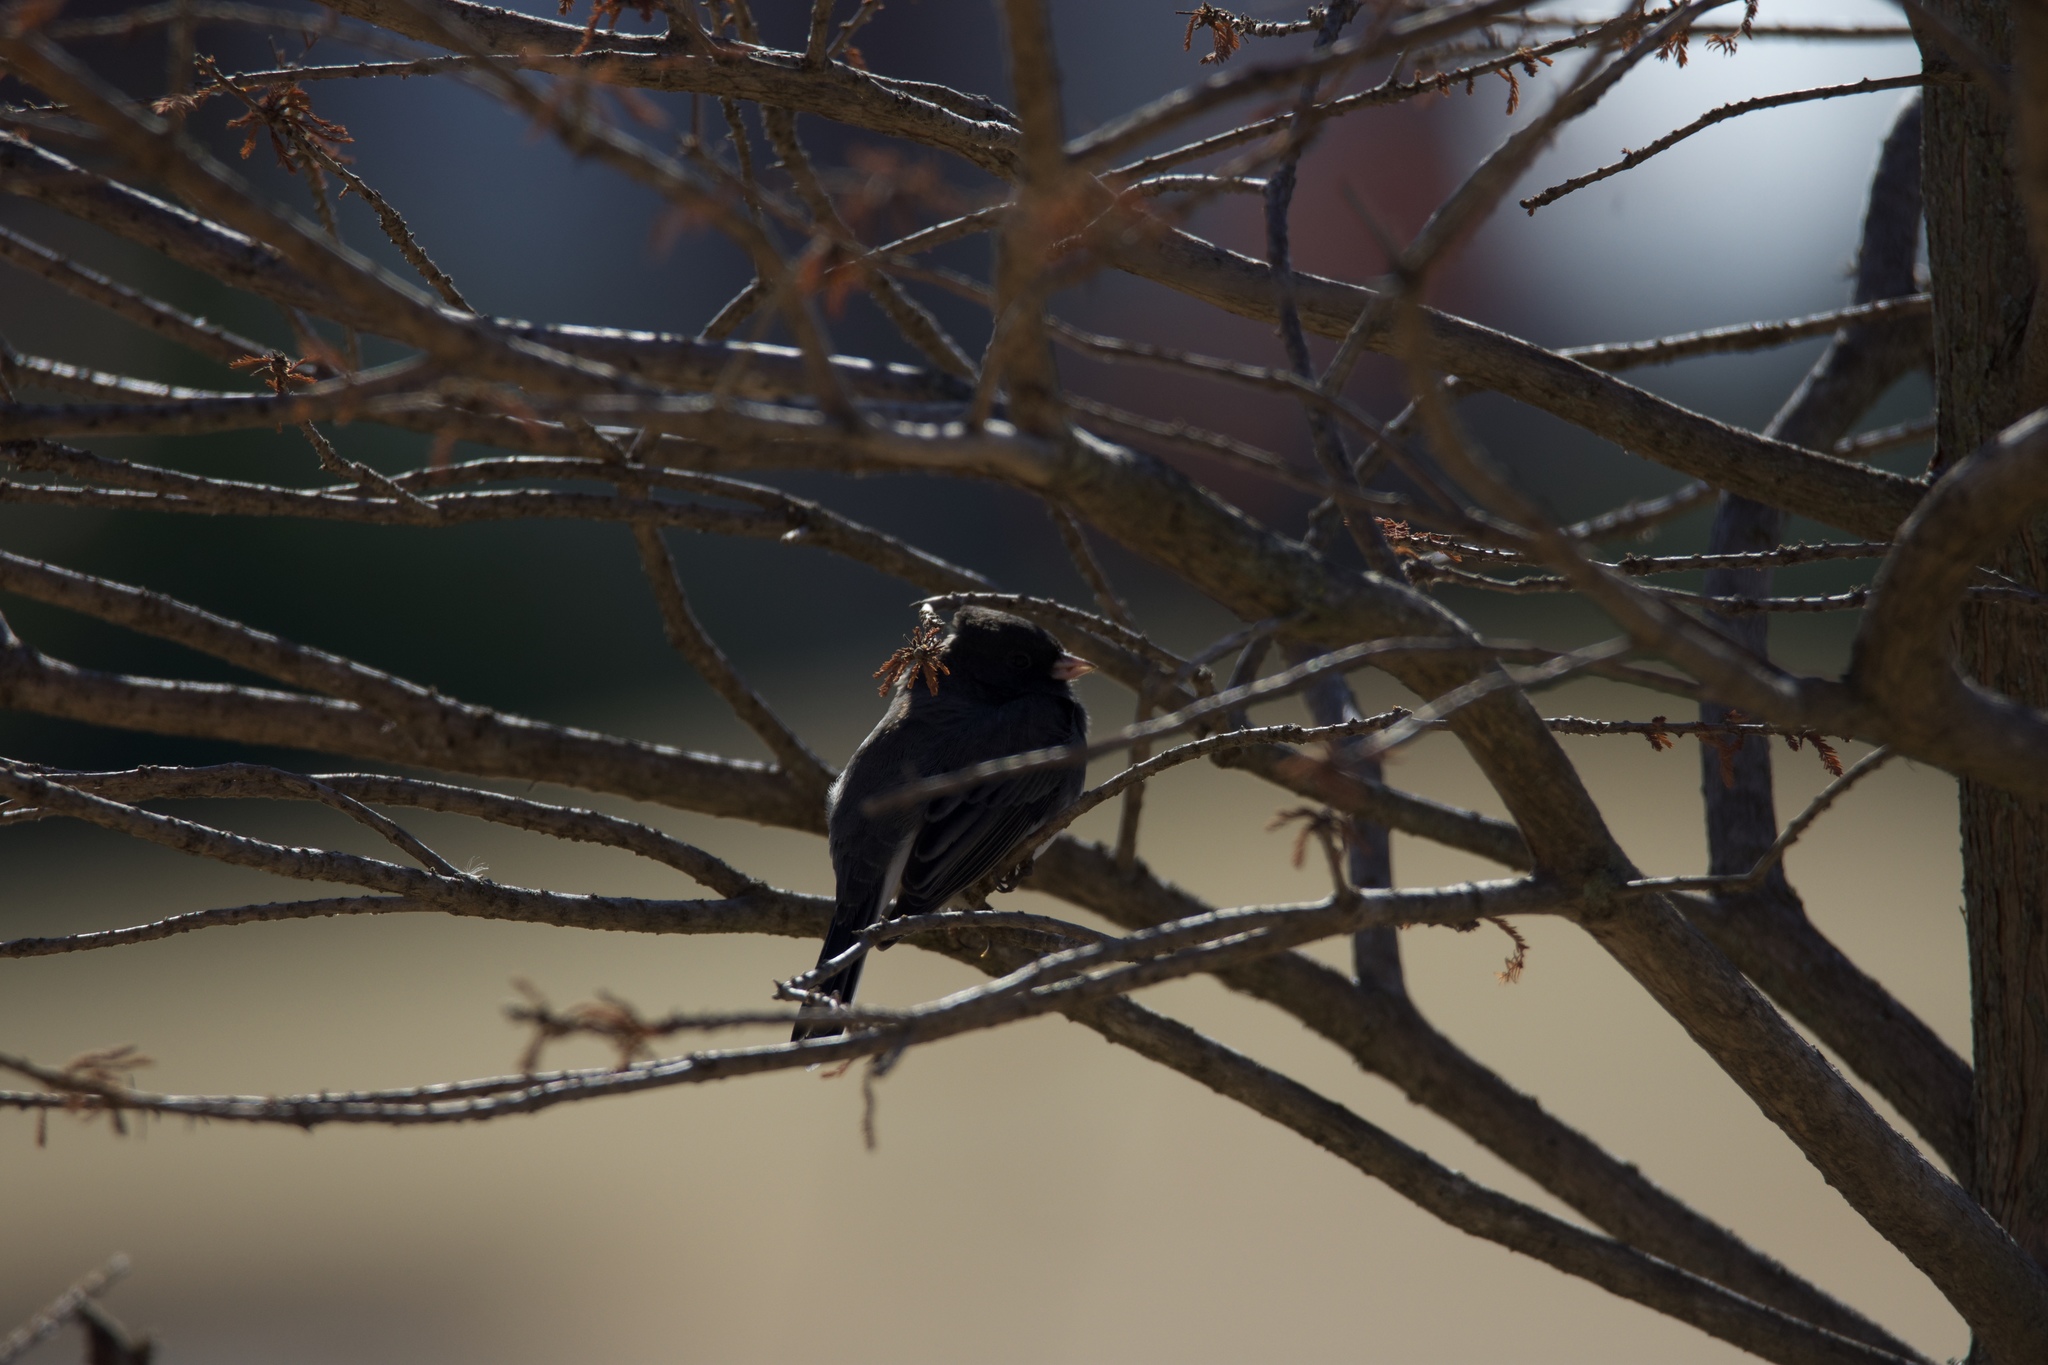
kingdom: Animalia
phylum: Chordata
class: Aves
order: Passeriformes
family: Passerellidae
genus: Junco
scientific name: Junco hyemalis
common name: Dark-eyed junco
